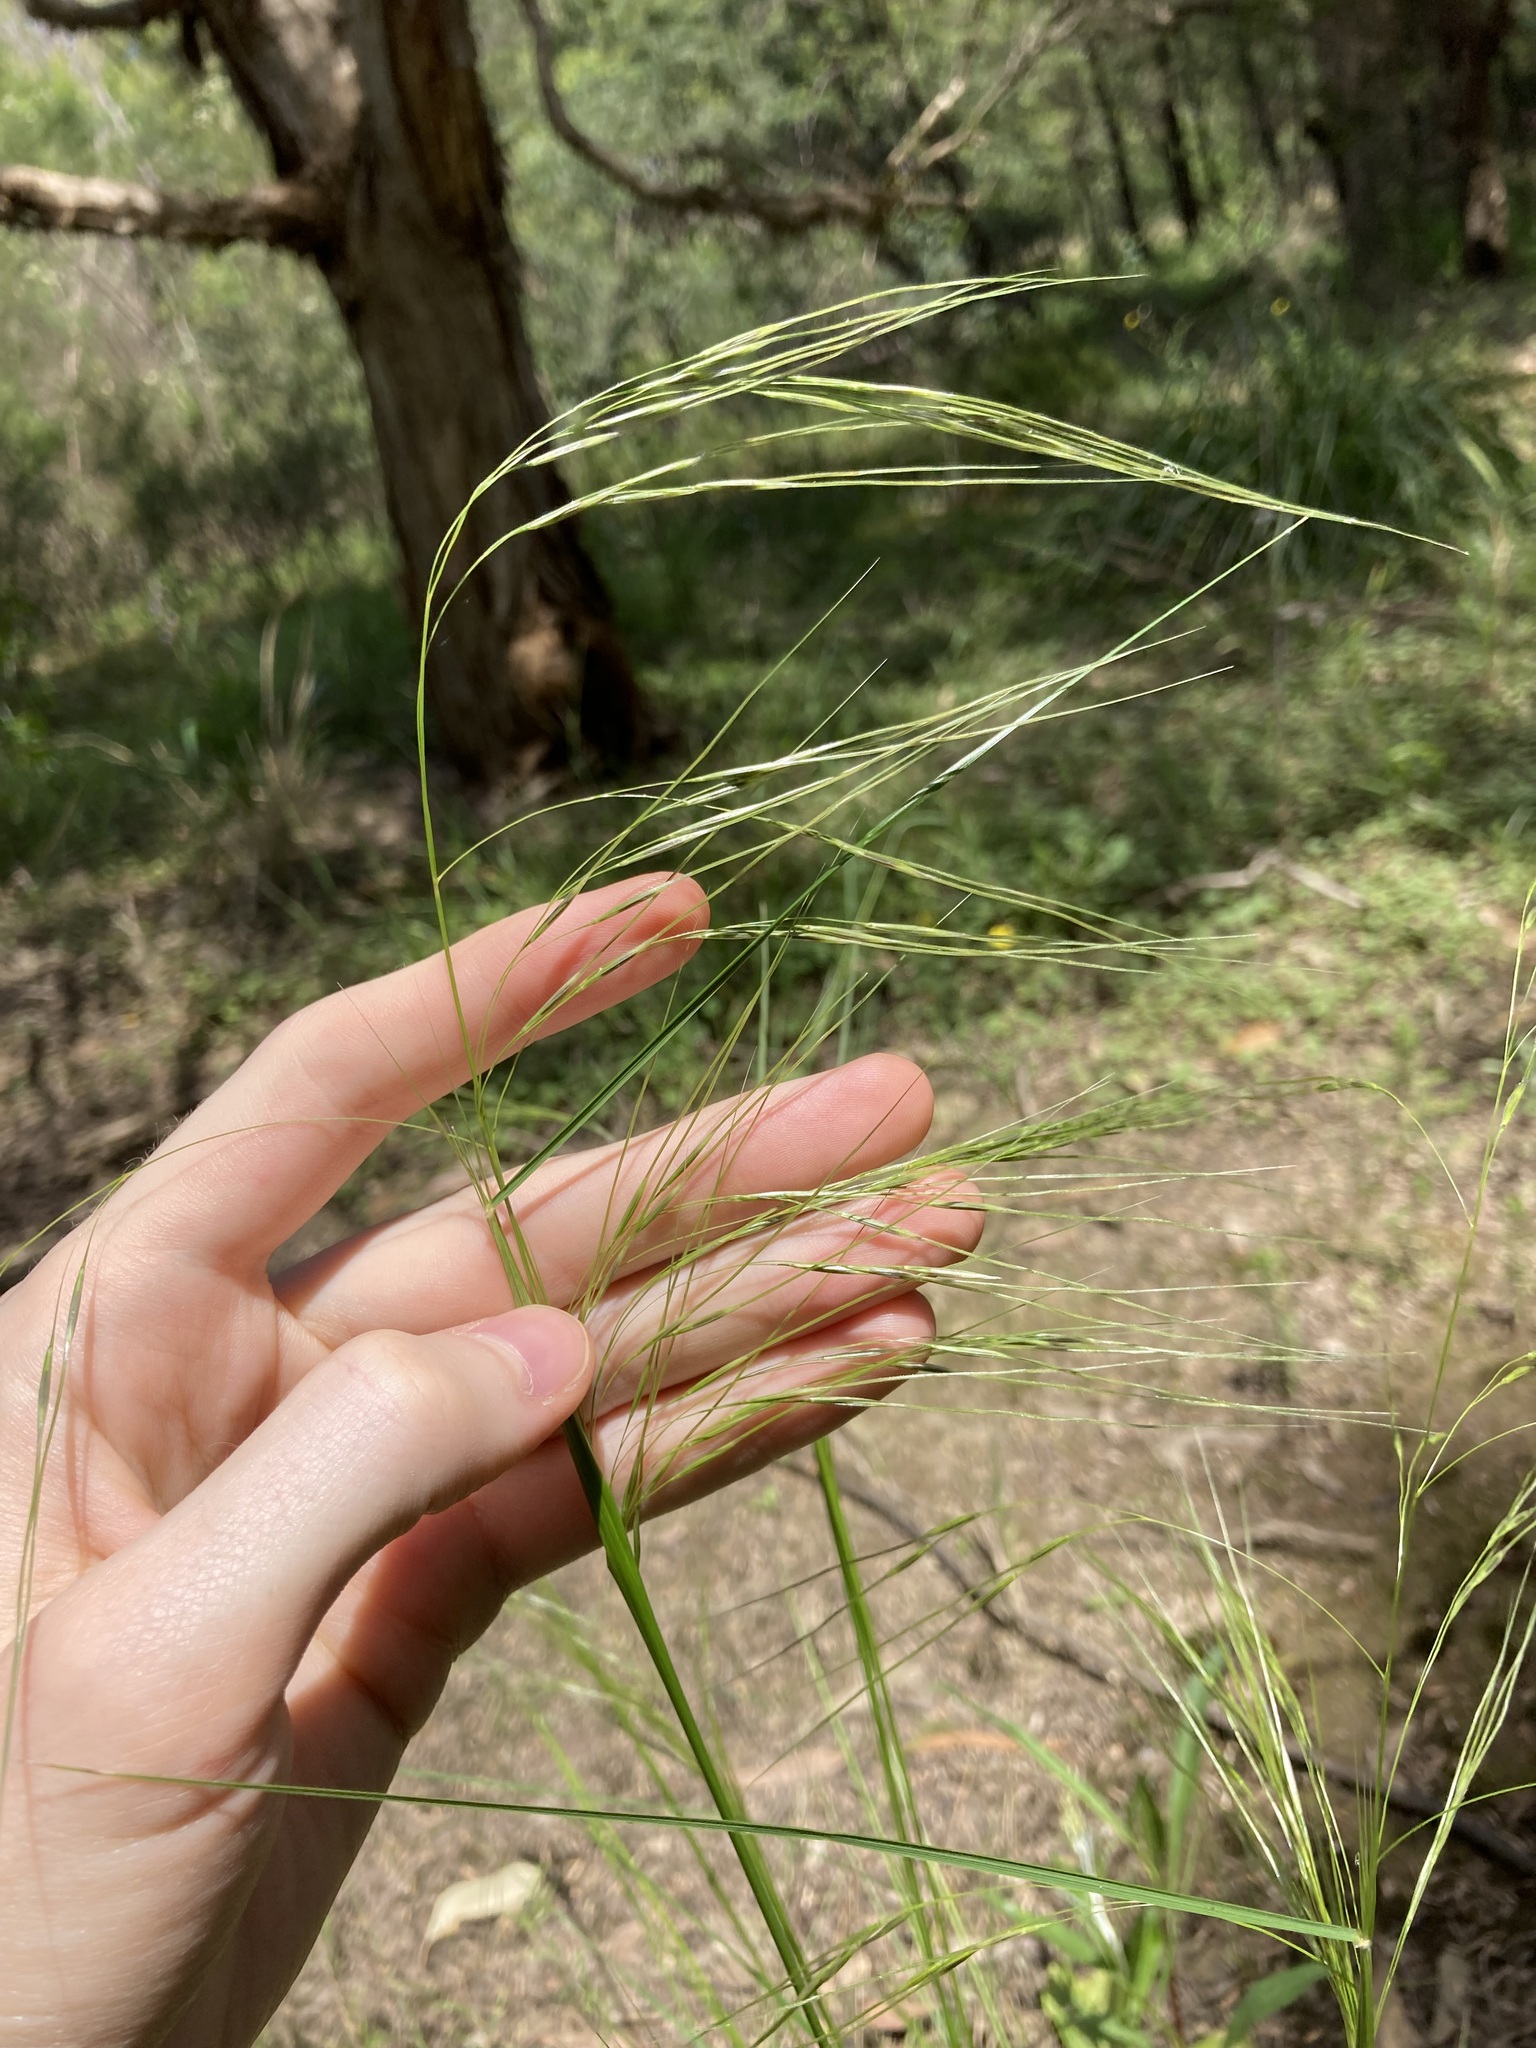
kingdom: Plantae
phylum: Tracheophyta
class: Liliopsida
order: Poales
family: Poaceae
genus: Austrostipa
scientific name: Austrostipa rudis
